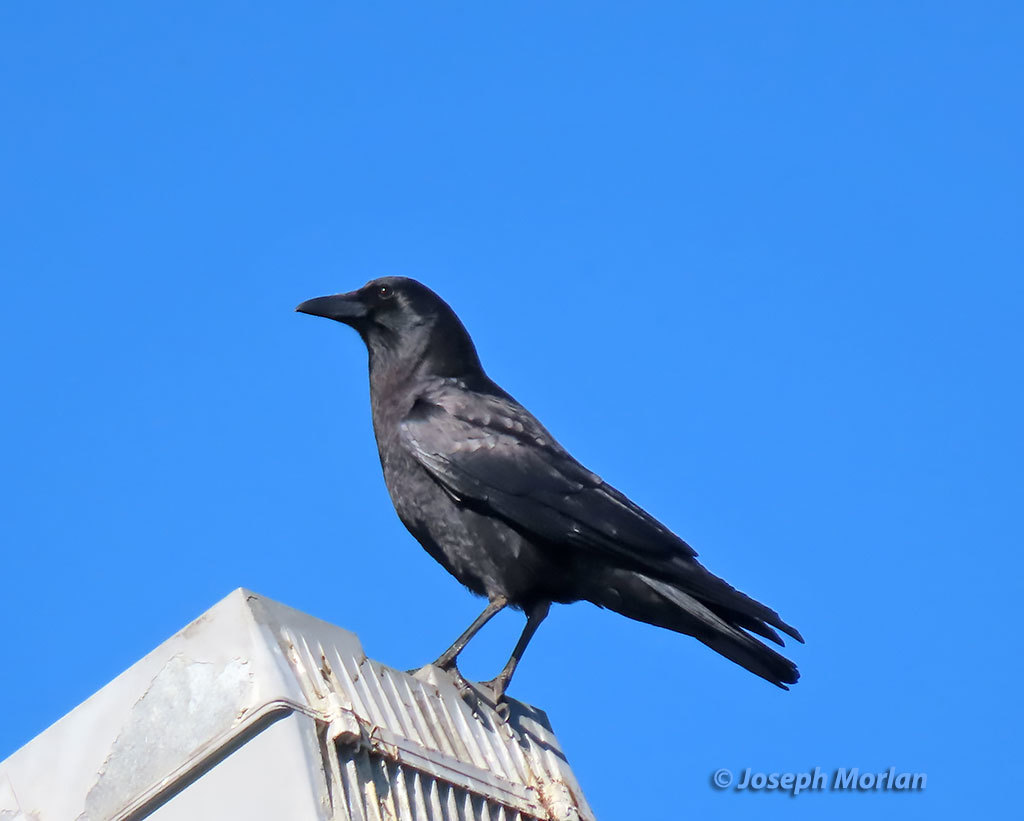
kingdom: Animalia
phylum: Chordata
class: Aves
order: Passeriformes
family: Corvidae
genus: Corvus
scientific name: Corvus brachyrhynchos
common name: American crow
